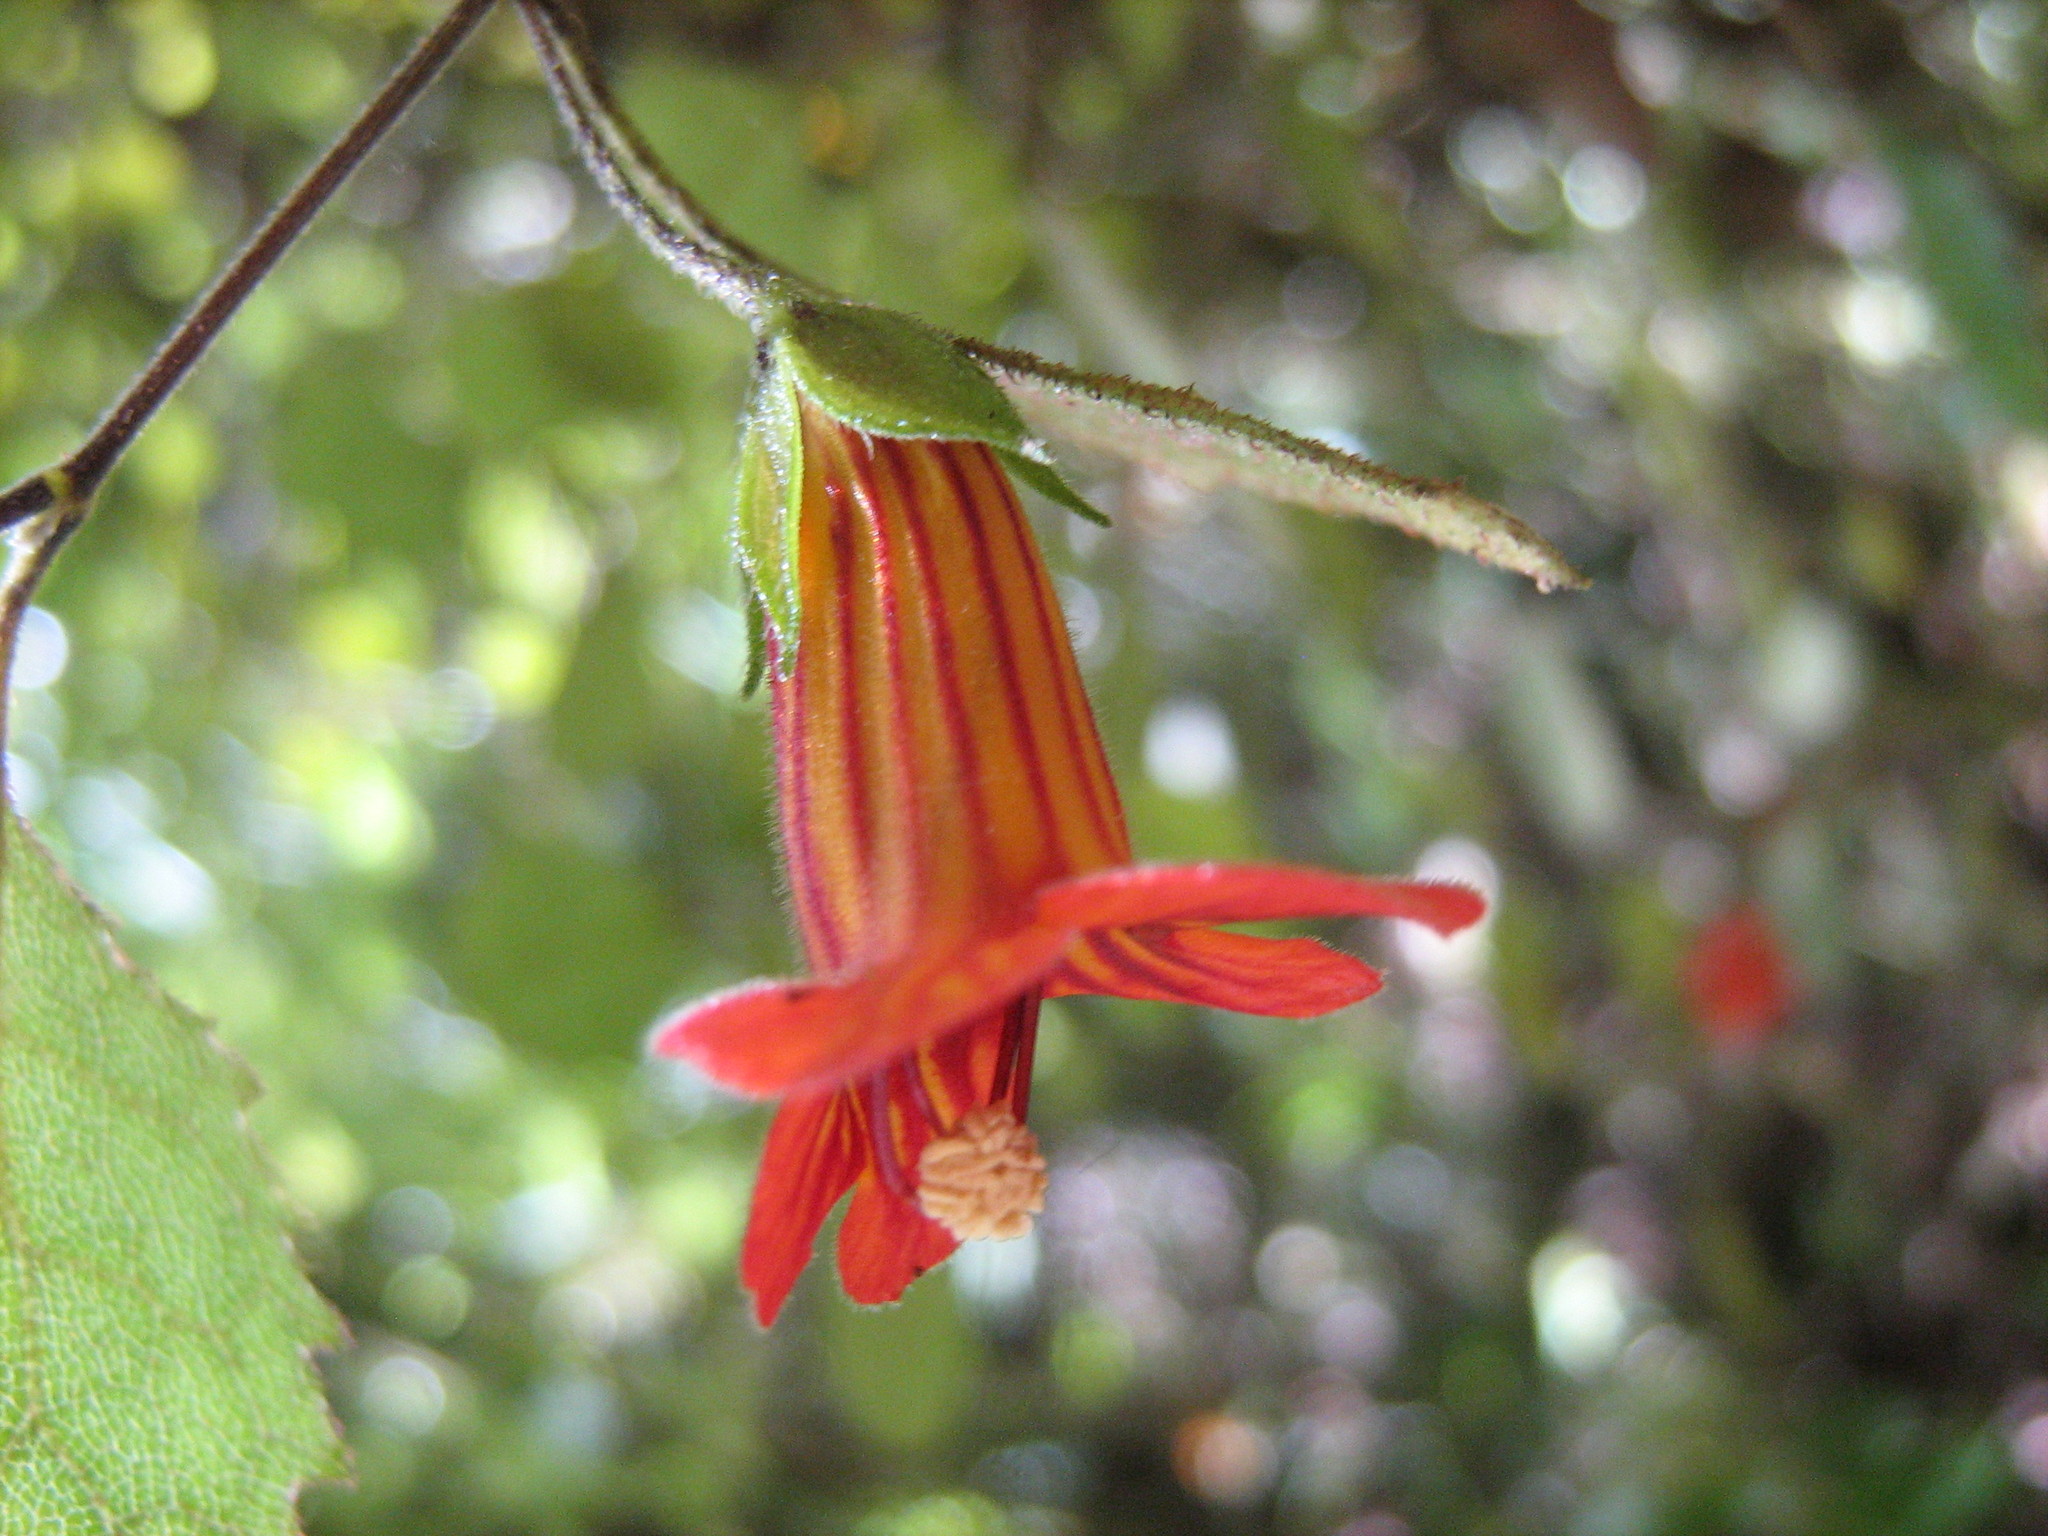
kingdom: Plantae
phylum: Tracheophyta
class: Magnoliopsida
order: Lamiales
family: Gesneriaceae
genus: Rhabdothamnus
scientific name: Rhabdothamnus solandri
